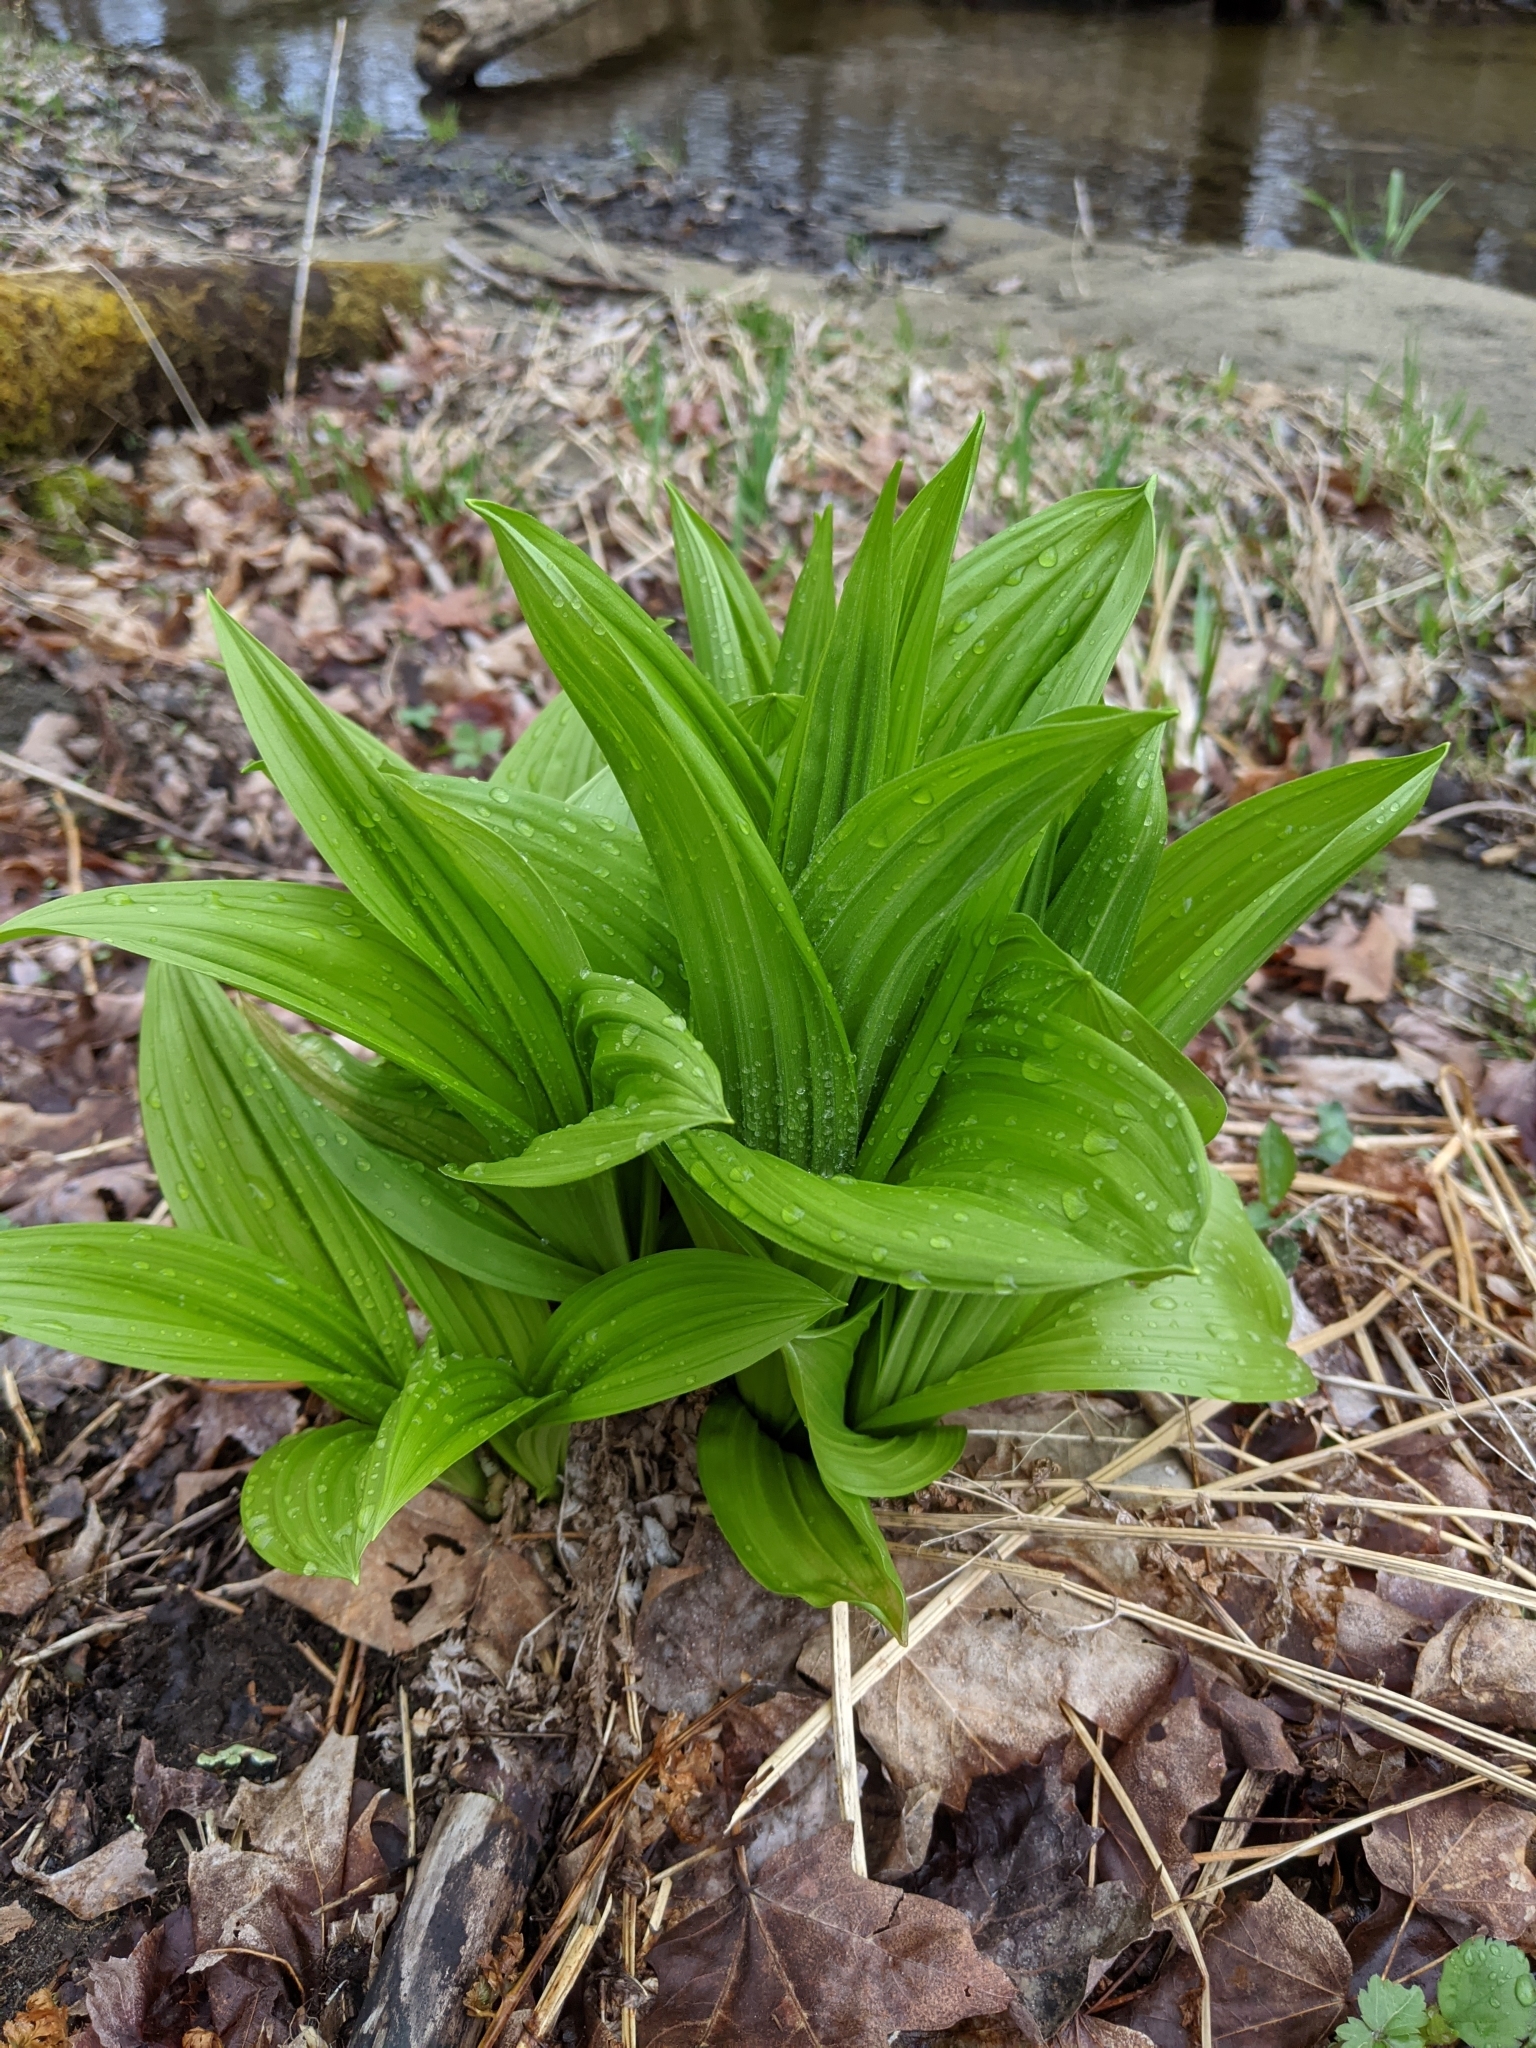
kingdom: Plantae
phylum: Tracheophyta
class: Liliopsida
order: Liliales
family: Melanthiaceae
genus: Veratrum
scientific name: Veratrum viride
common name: American false hellebore
